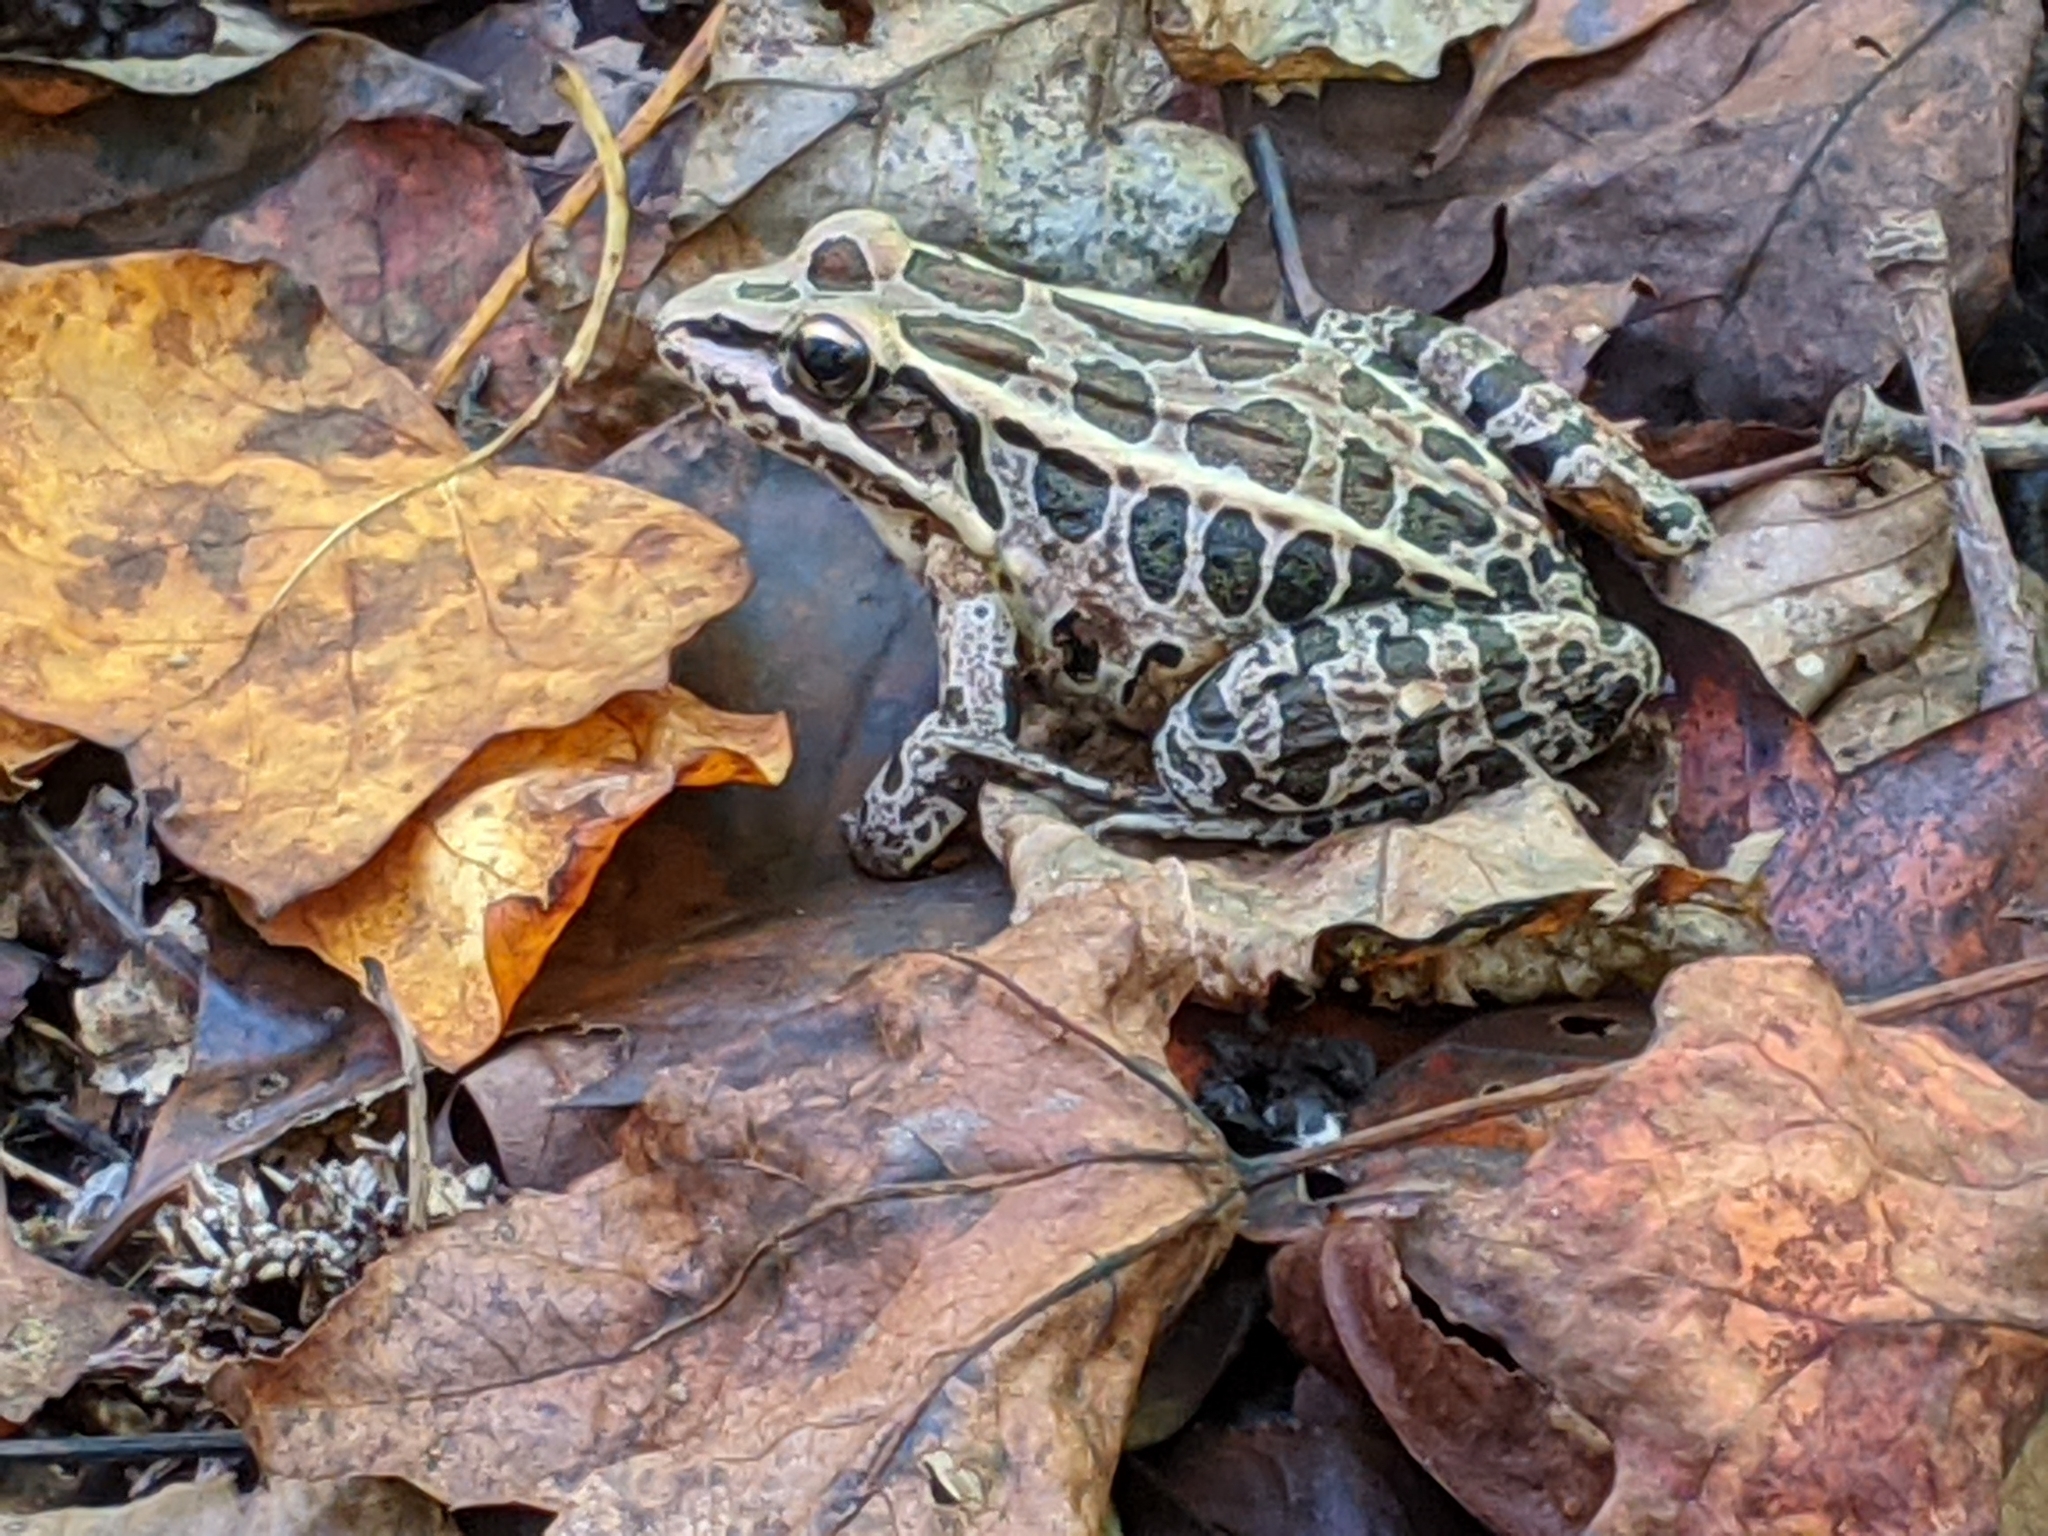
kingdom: Animalia
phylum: Chordata
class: Amphibia
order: Anura
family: Ranidae
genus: Lithobates
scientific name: Lithobates palustris
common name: Pickerel frog
